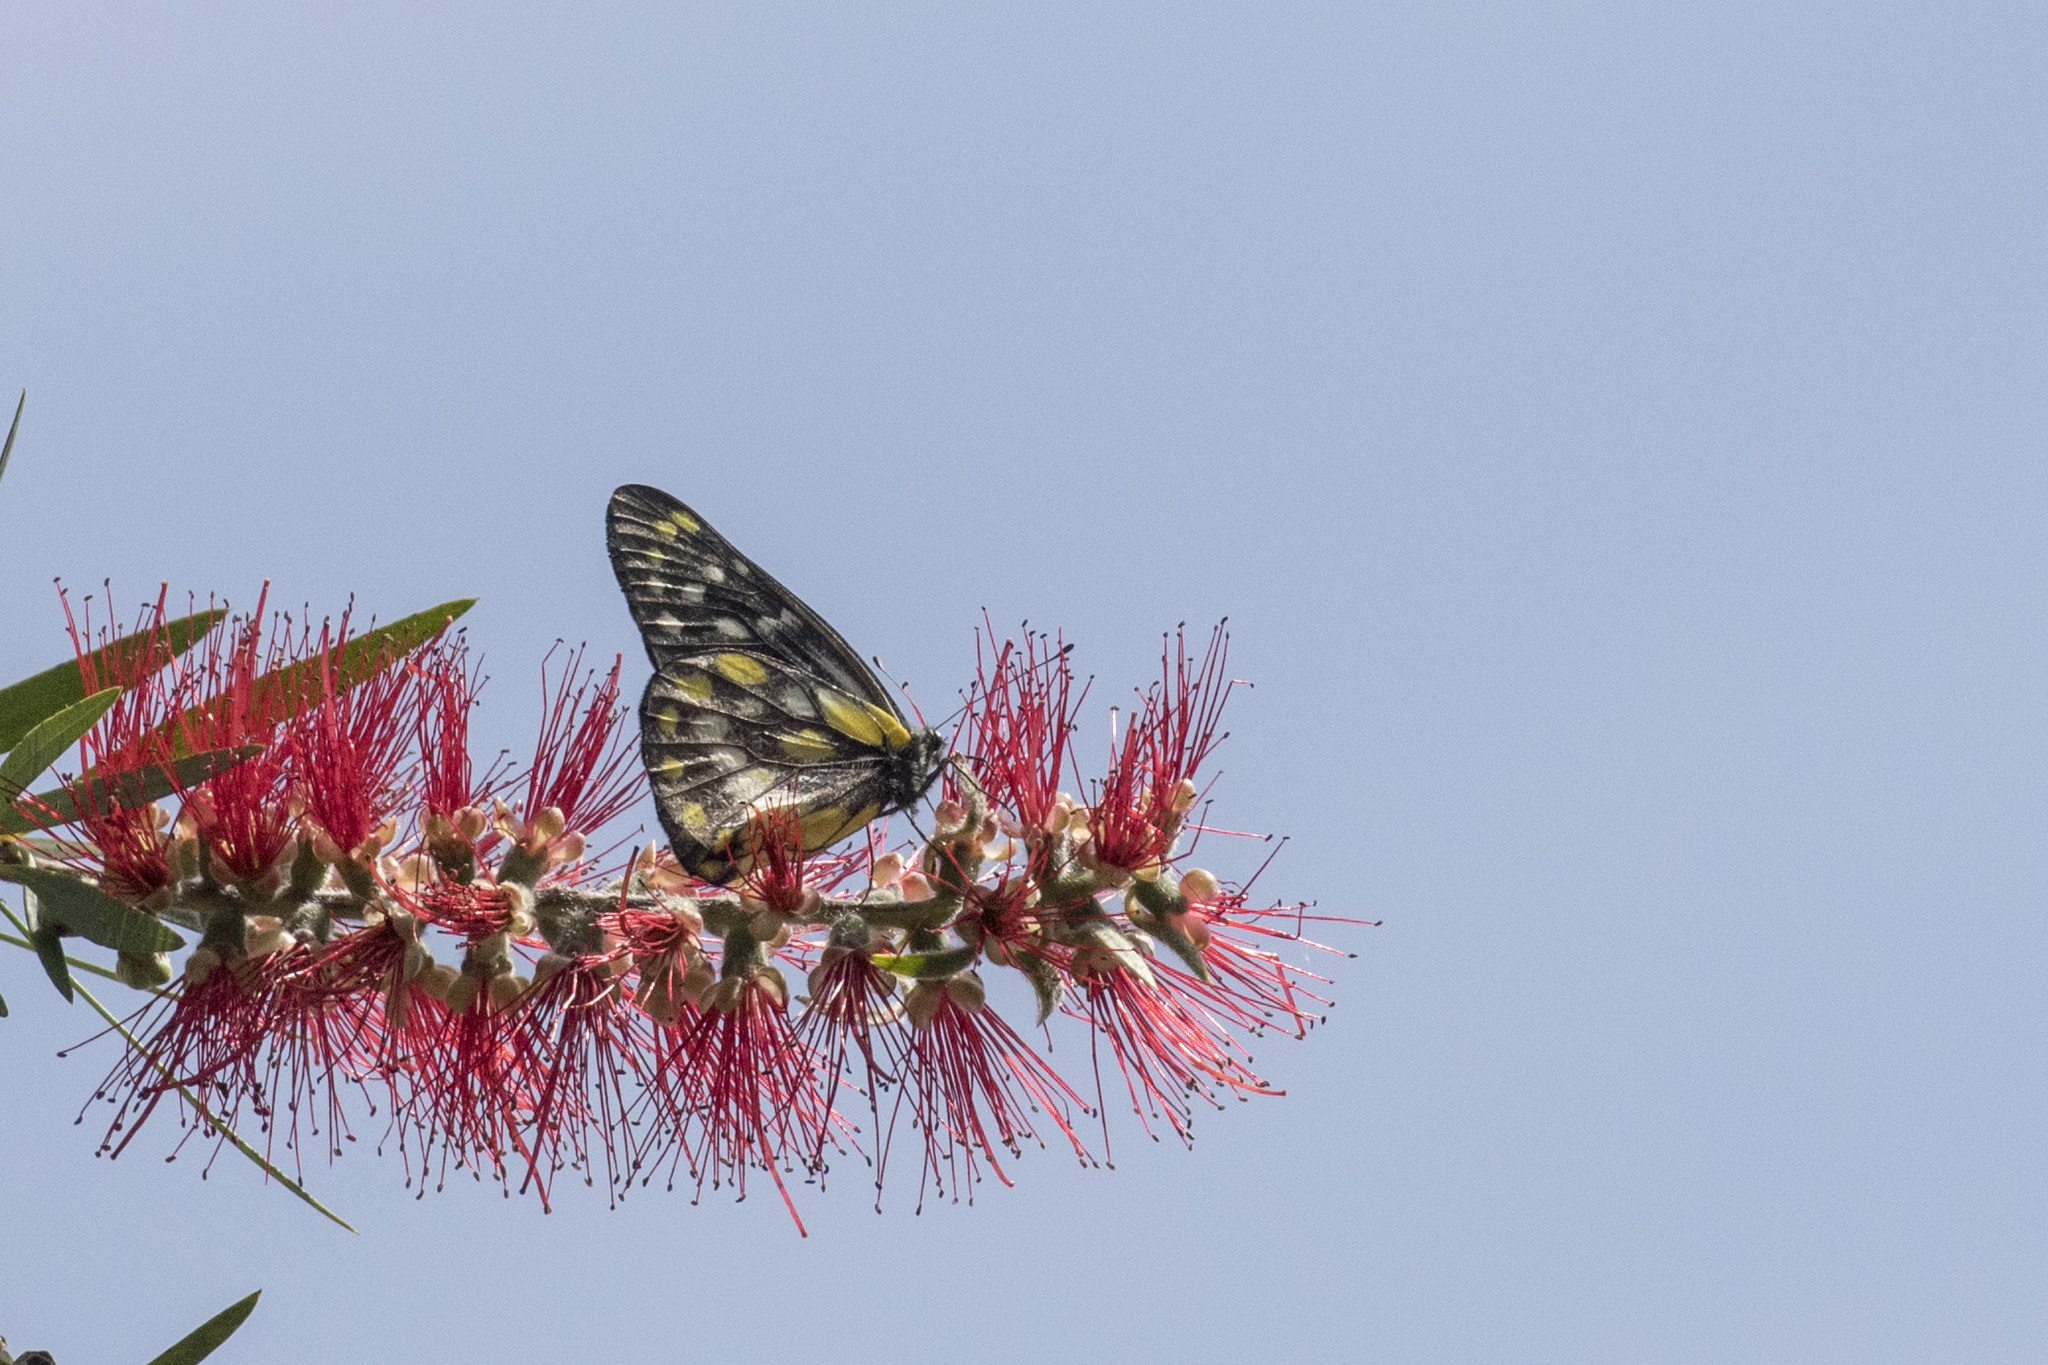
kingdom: Animalia
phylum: Arthropoda
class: Insecta
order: Lepidoptera
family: Pieridae
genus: Delias
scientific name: Delias belladonna
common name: Hill jezebel
